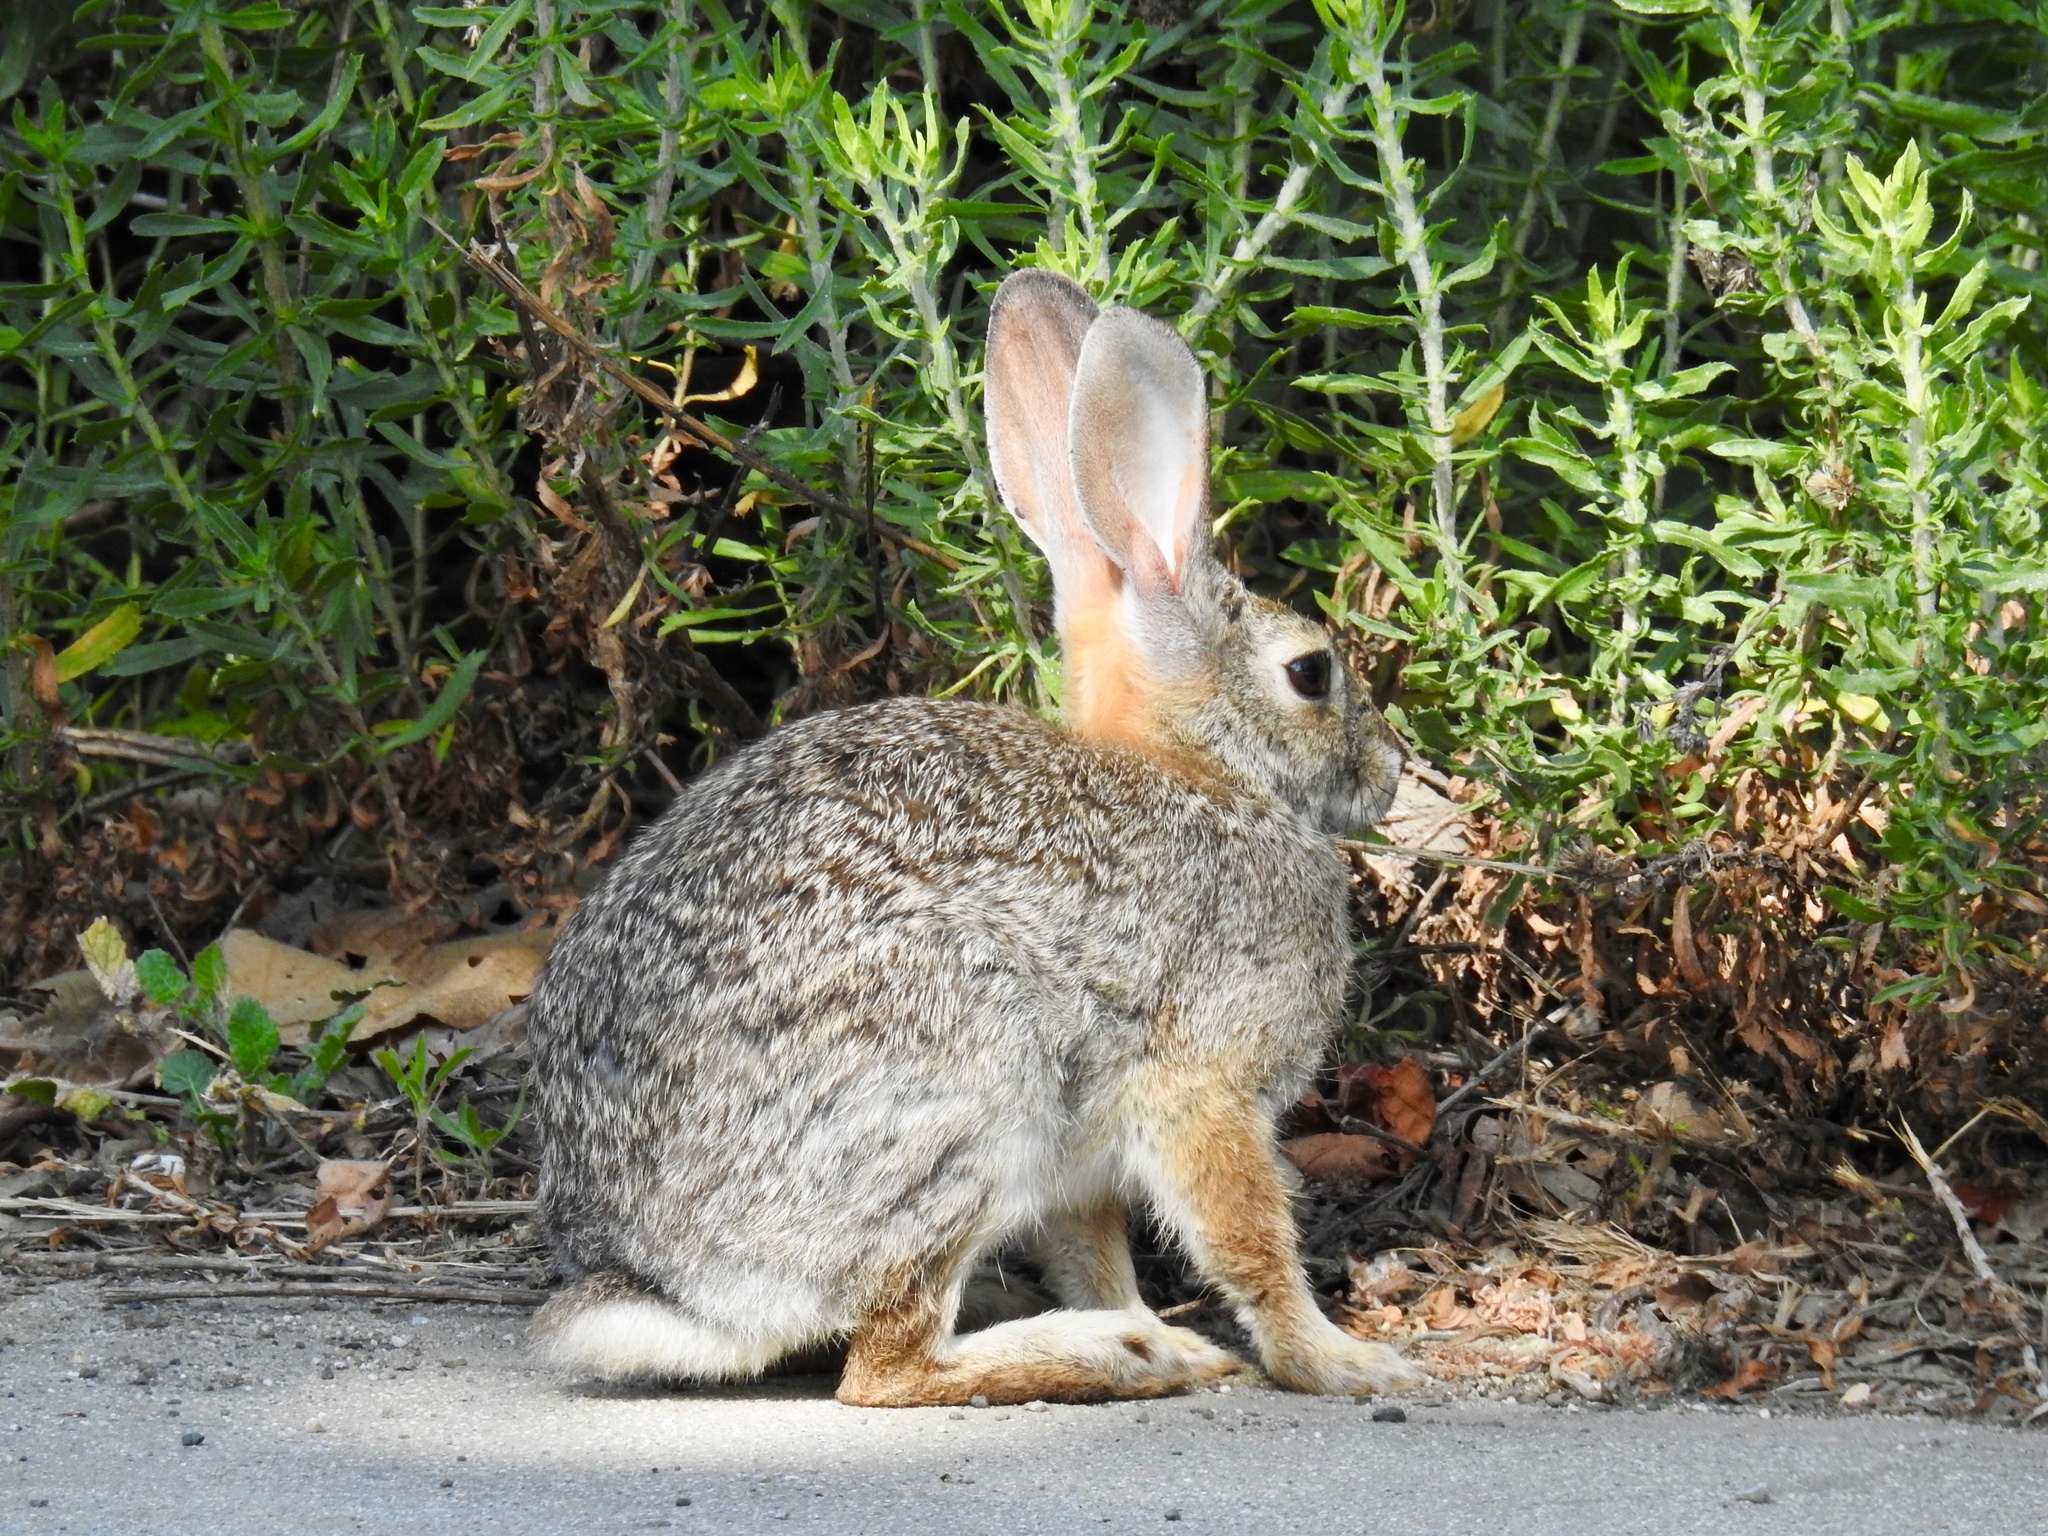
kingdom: Animalia
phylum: Chordata
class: Mammalia
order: Lagomorpha
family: Leporidae
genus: Sylvilagus
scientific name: Sylvilagus audubonii
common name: Desert cottontail
